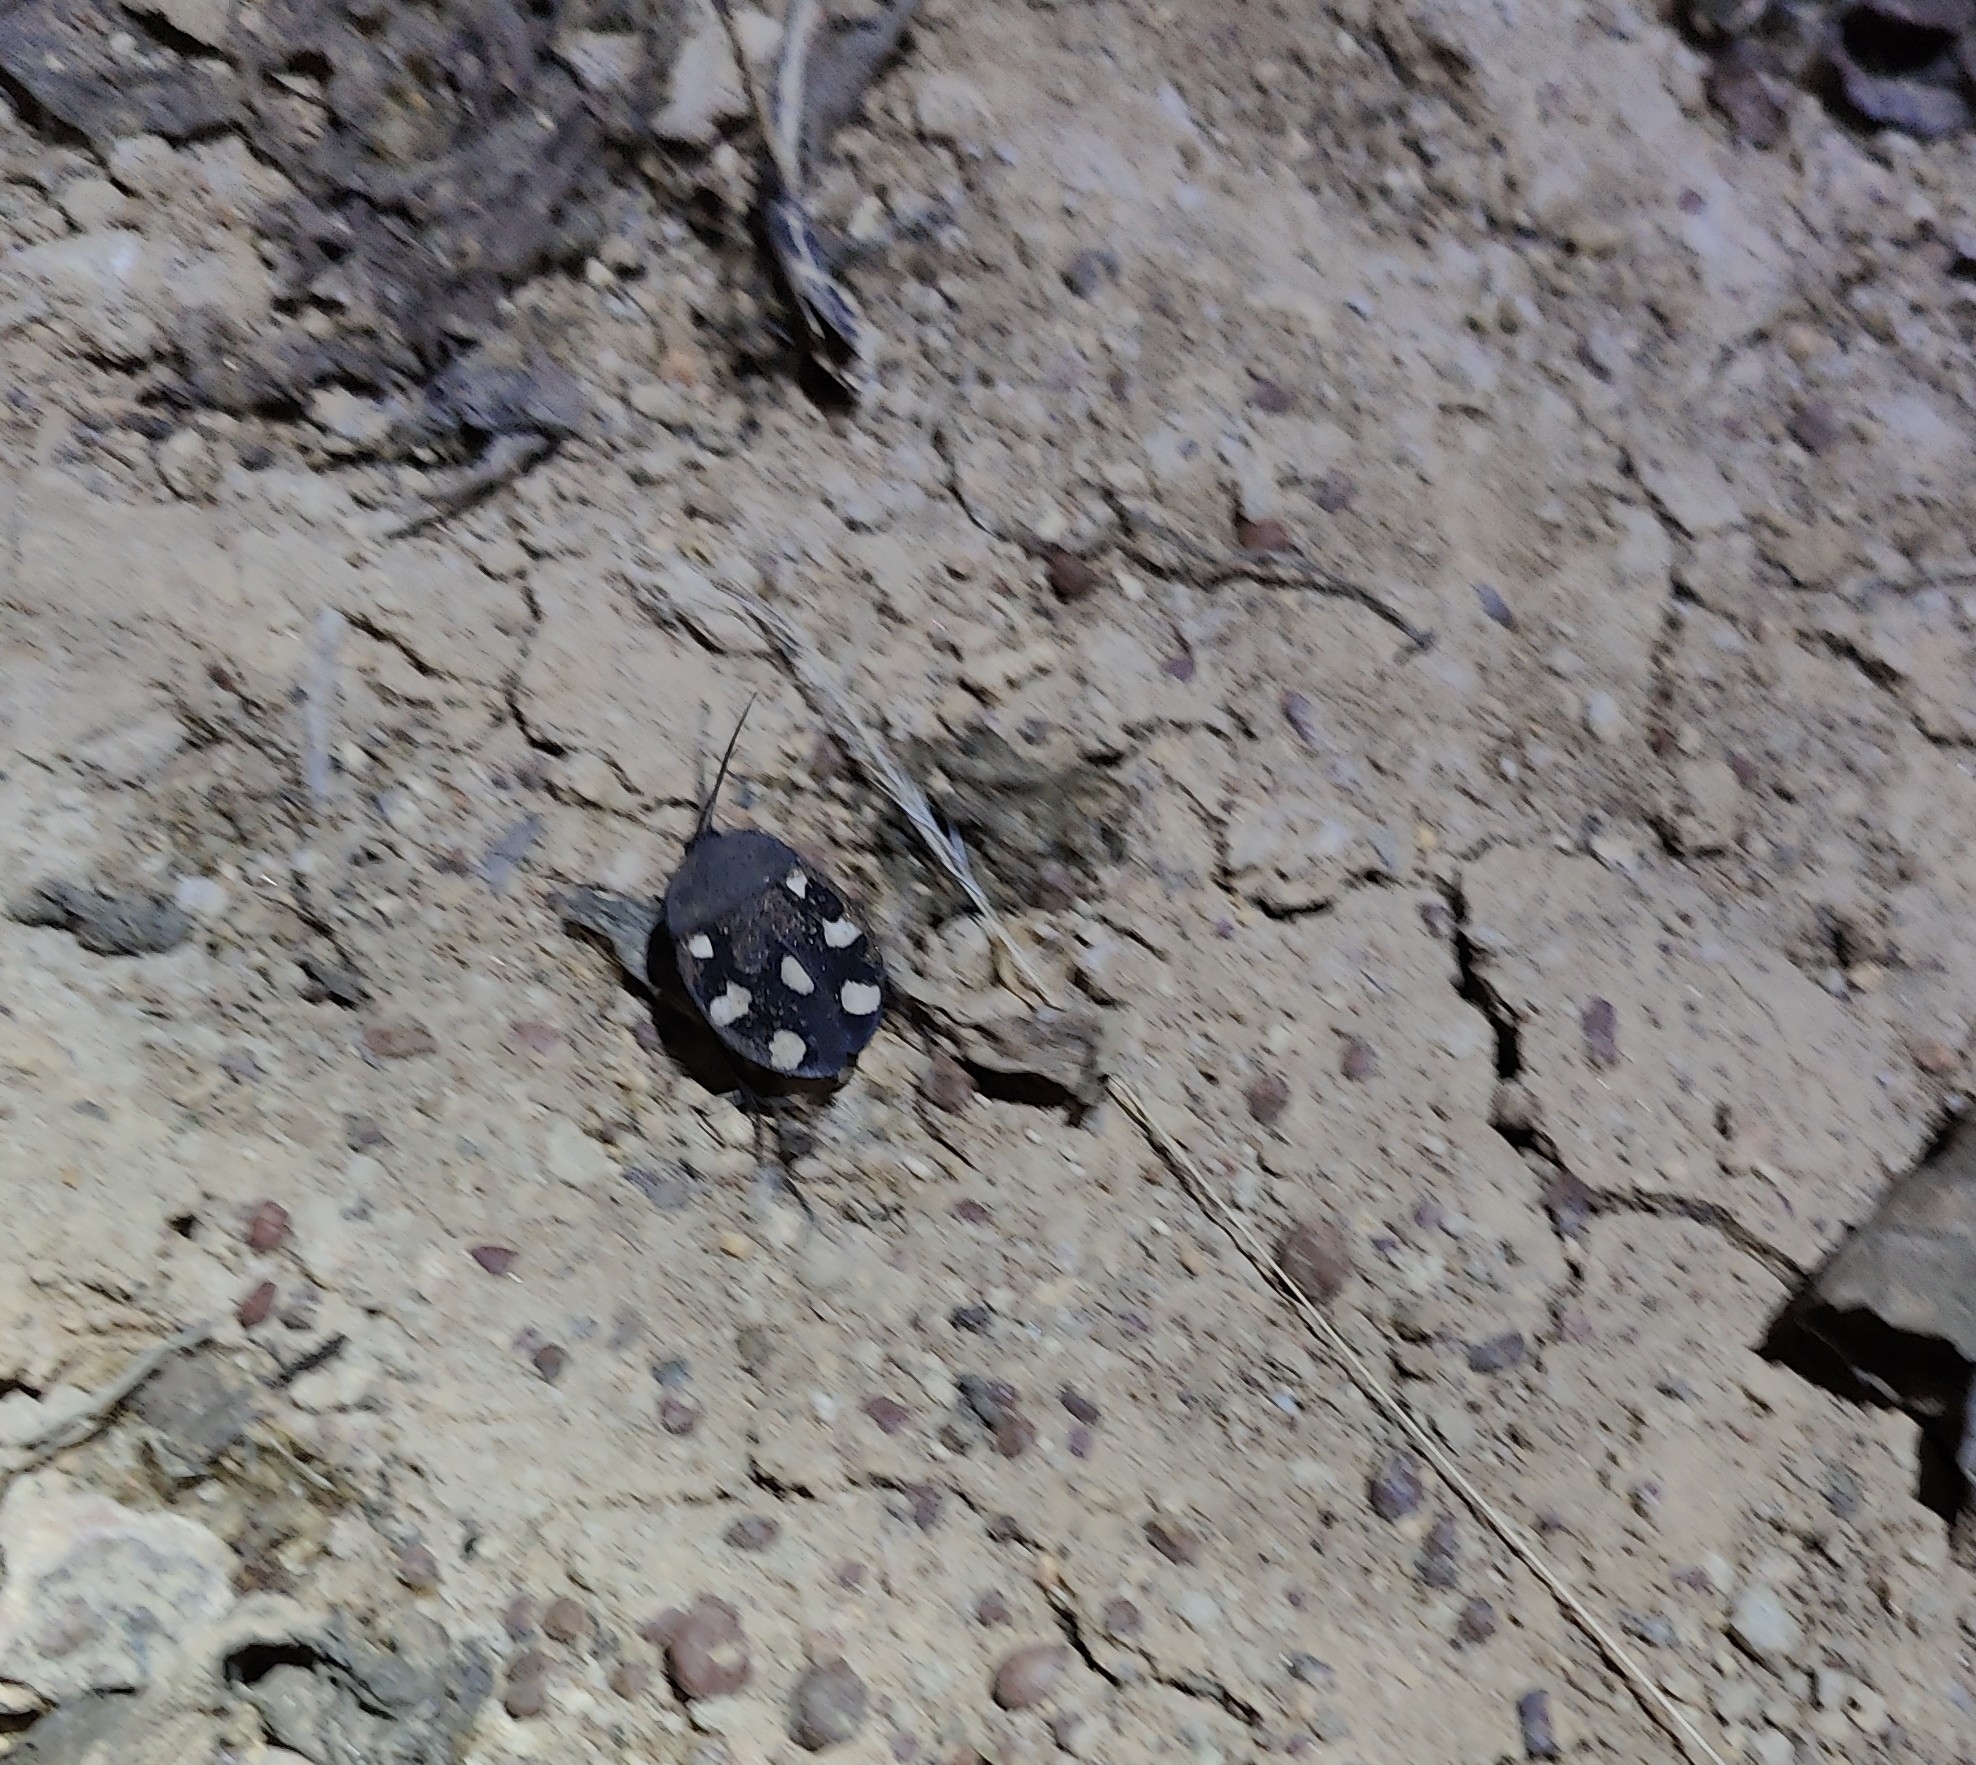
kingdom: Animalia
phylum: Arthropoda
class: Insecta
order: Blattodea
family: Corydiidae
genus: Therea
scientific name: Therea petiveriana
